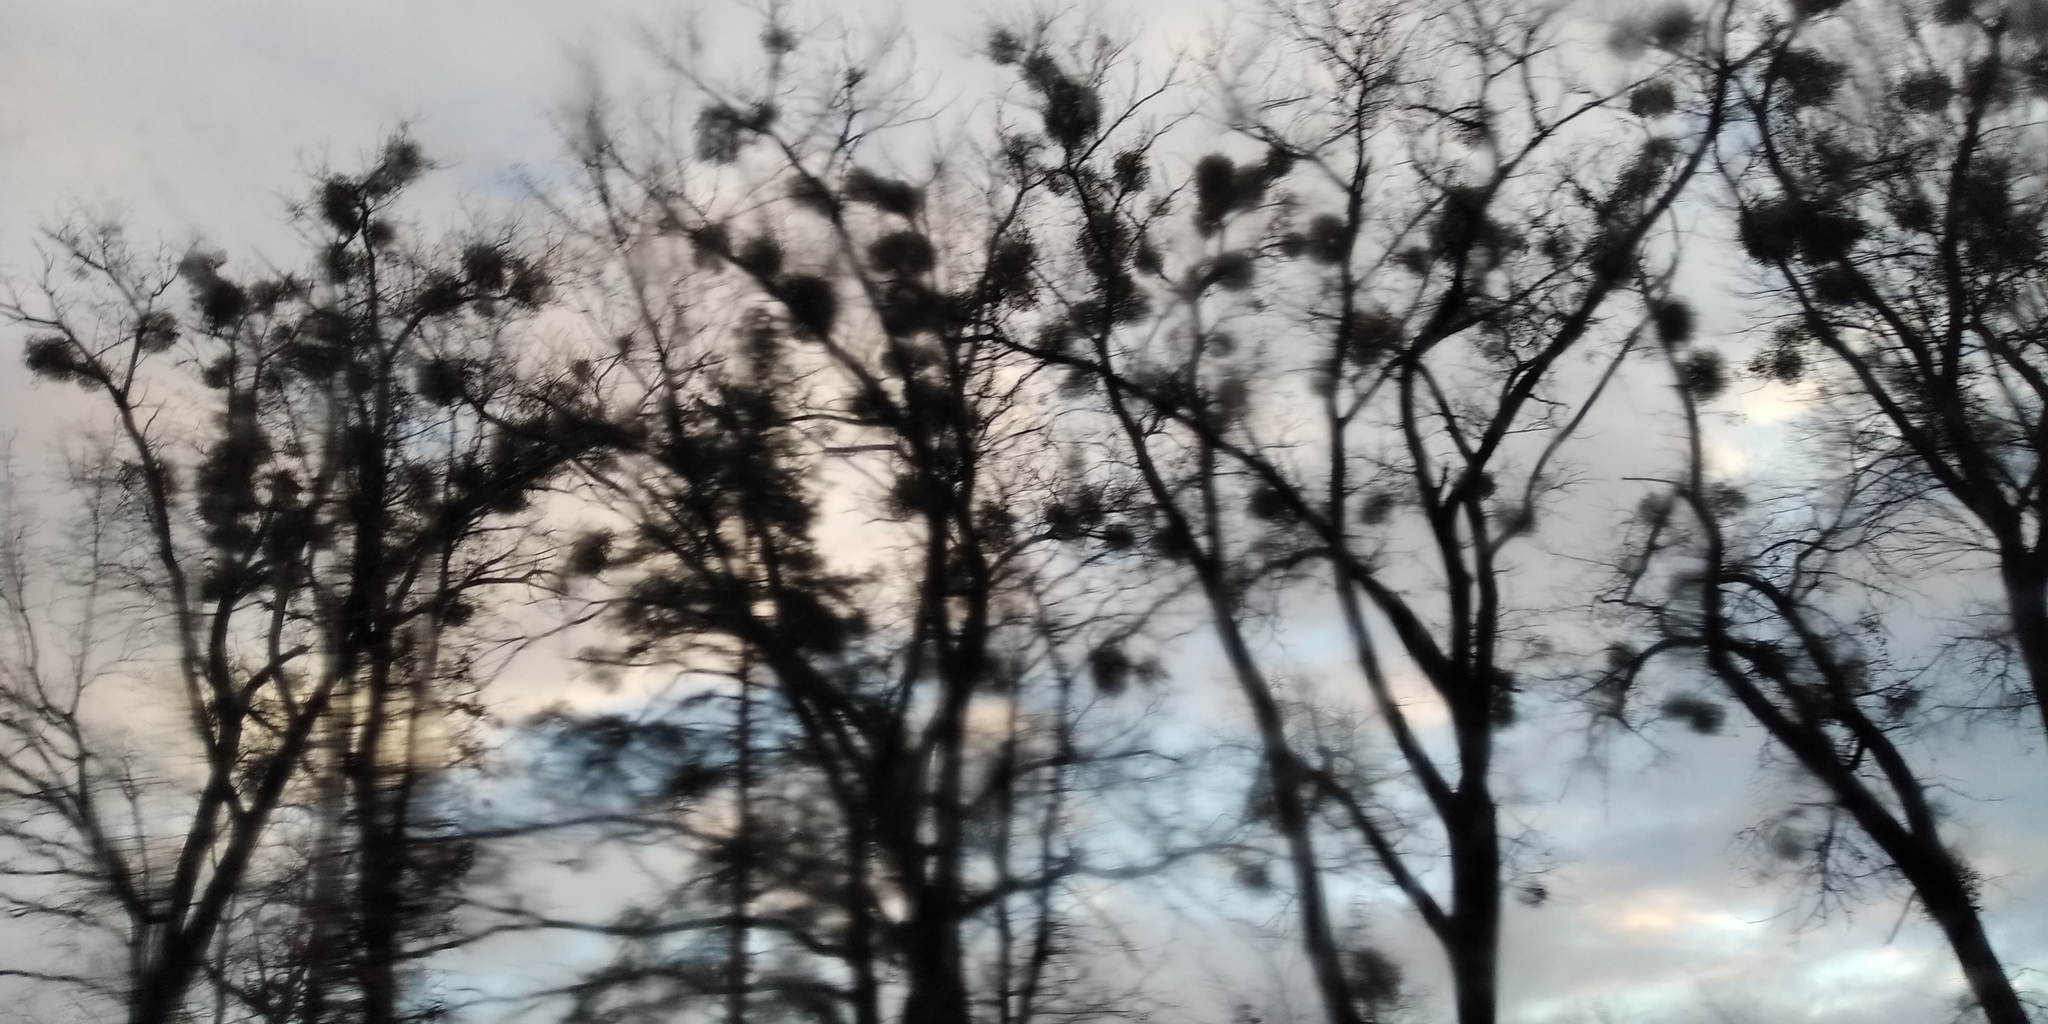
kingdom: Plantae
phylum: Tracheophyta
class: Magnoliopsida
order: Santalales
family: Viscaceae
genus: Viscum
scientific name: Viscum album
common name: Mistletoe
